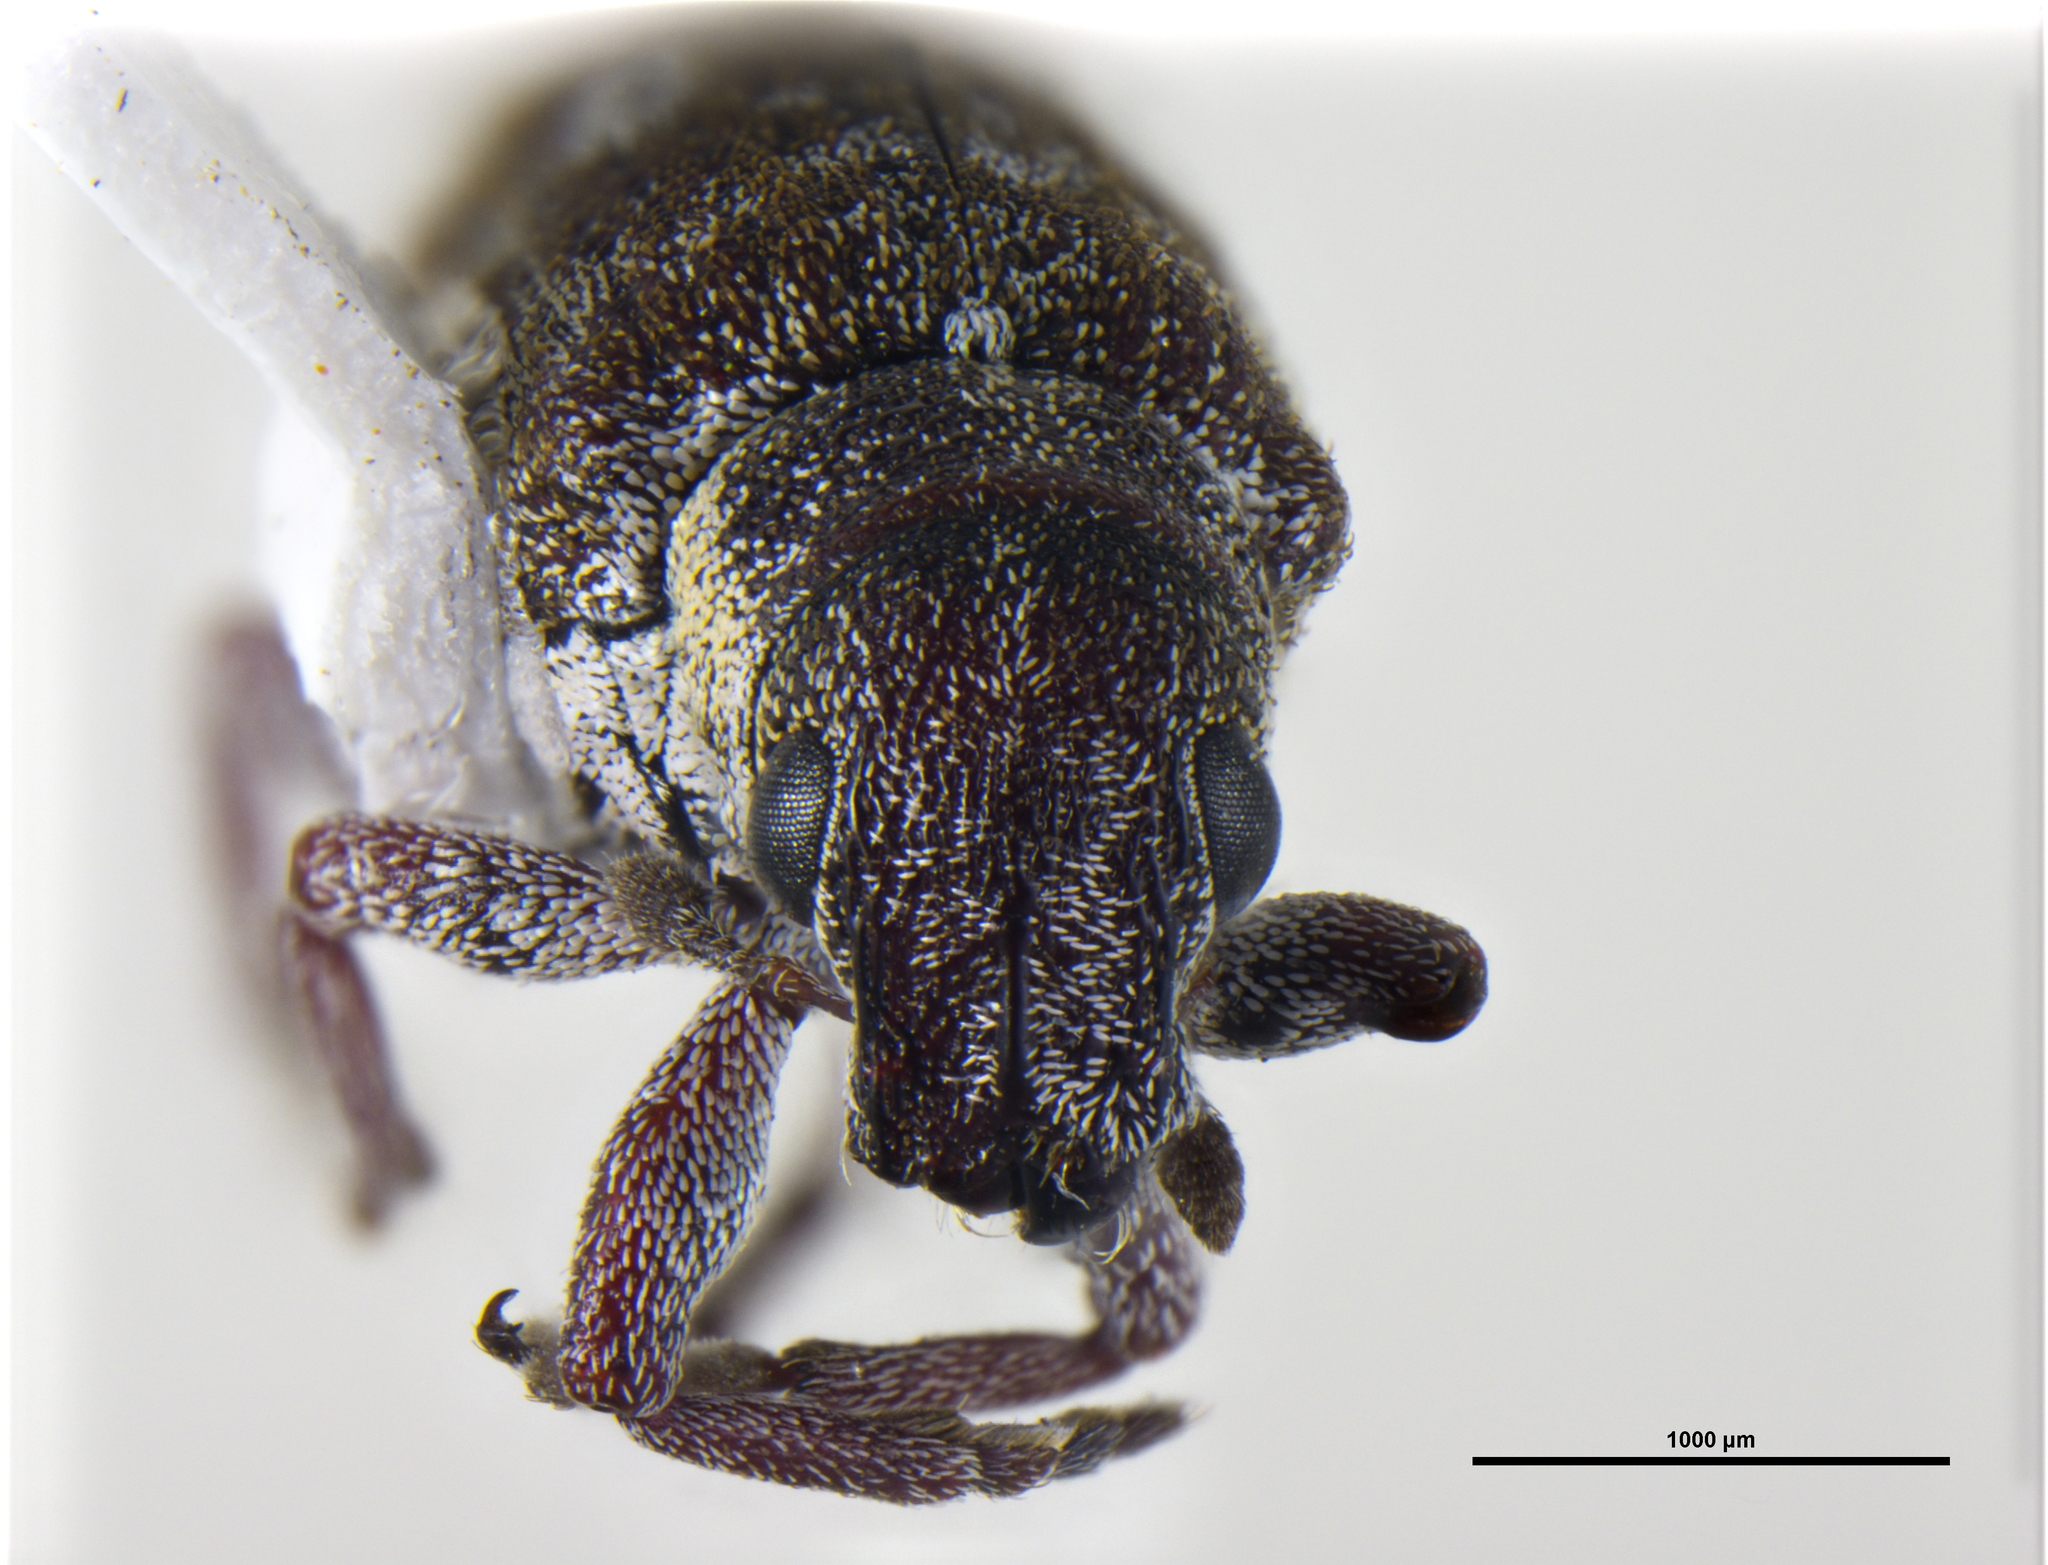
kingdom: Animalia
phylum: Arthropoda
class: Insecta
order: Coleoptera
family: Curculionidae
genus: Peliocis
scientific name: Peliocis subcylindricus
